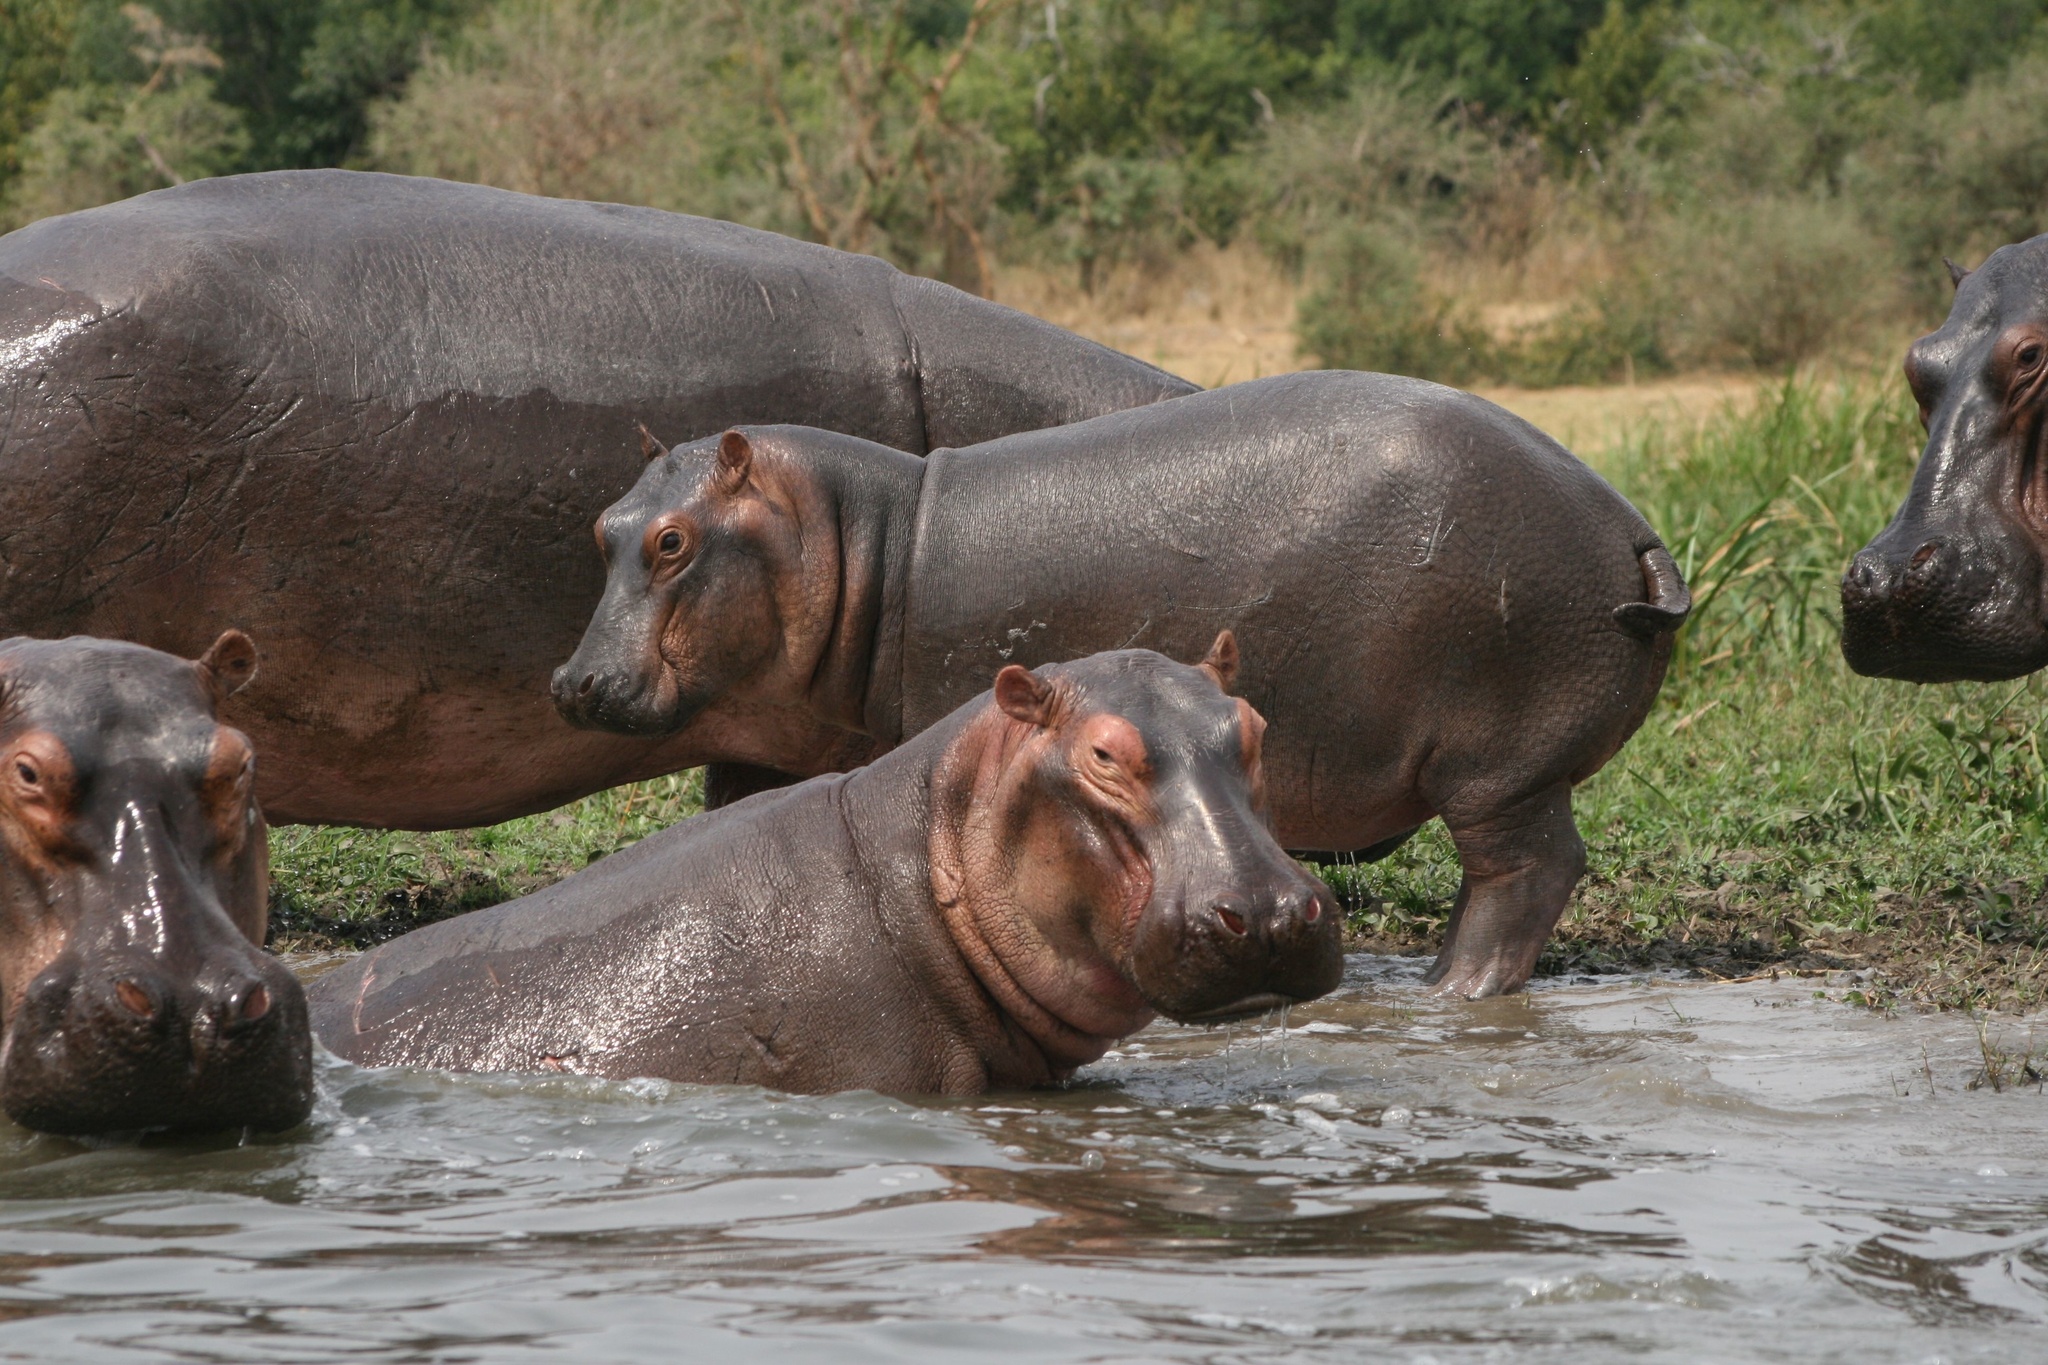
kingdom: Animalia
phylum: Chordata
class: Mammalia
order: Artiodactyla
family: Hippopotamidae
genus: Hippopotamus
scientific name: Hippopotamus amphibius
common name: Common hippopotamus
